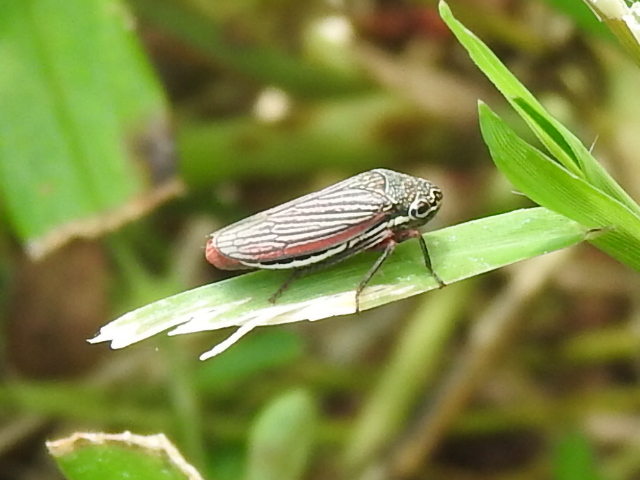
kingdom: Animalia
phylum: Arthropoda
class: Insecta
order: Hemiptera
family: Cicadellidae
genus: Cuerna
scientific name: Cuerna costalis
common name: Lateral-lined sharpshooter
